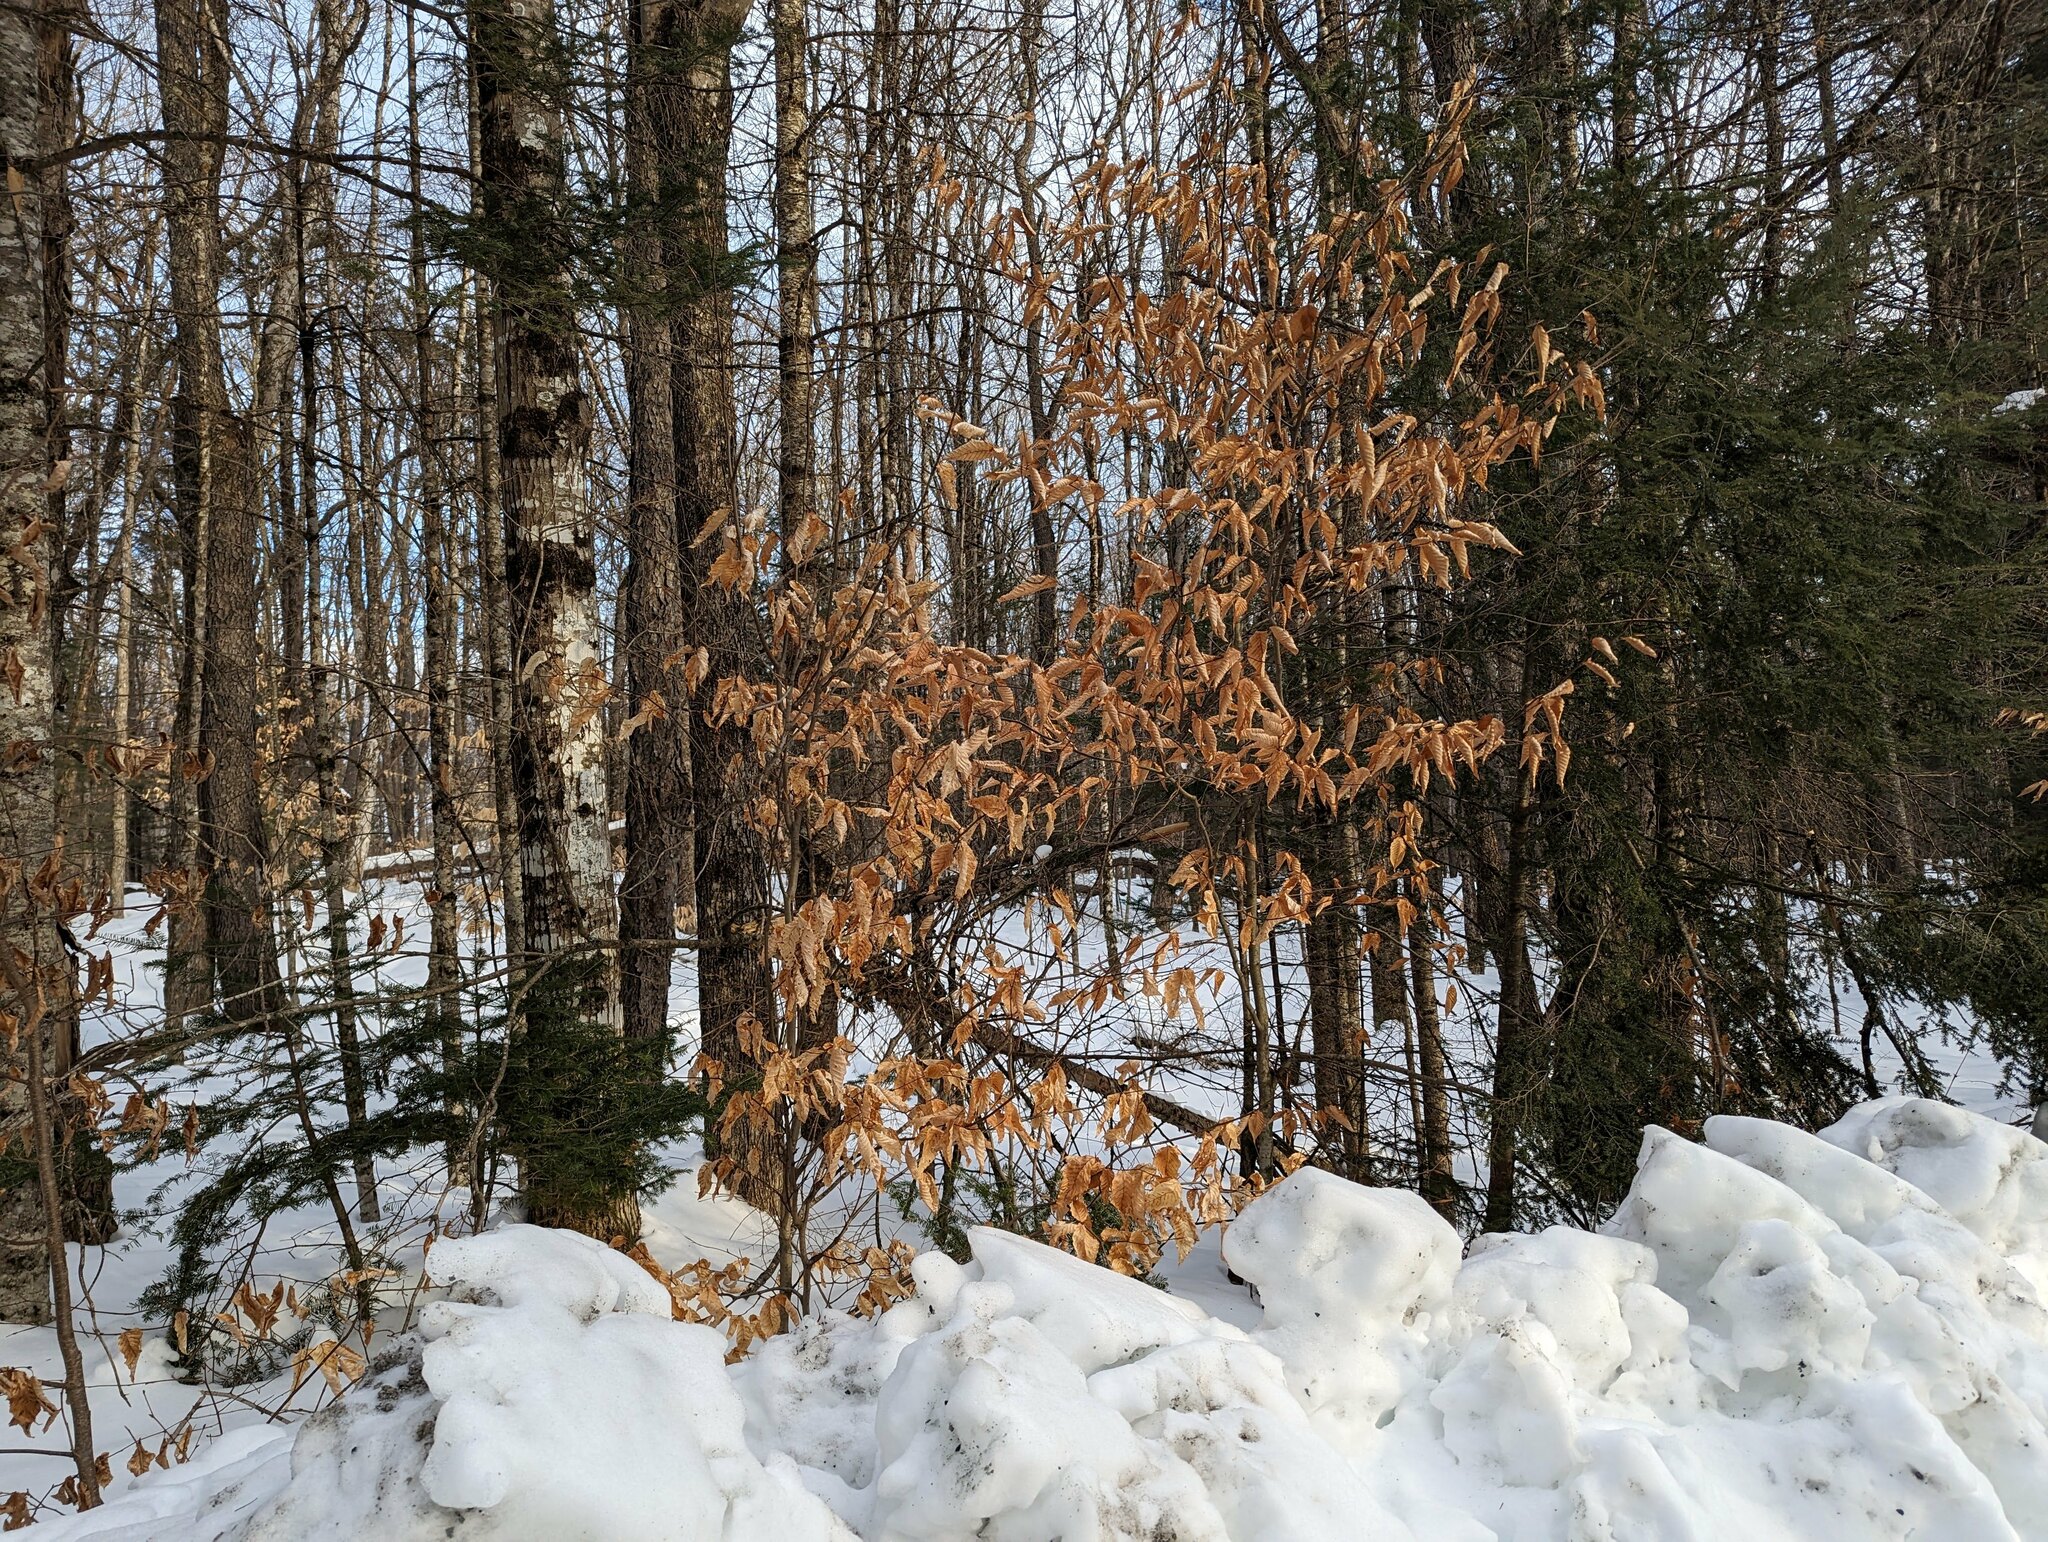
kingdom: Plantae
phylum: Tracheophyta
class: Magnoliopsida
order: Fagales
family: Fagaceae
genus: Fagus
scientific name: Fagus grandifolia
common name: American beech
